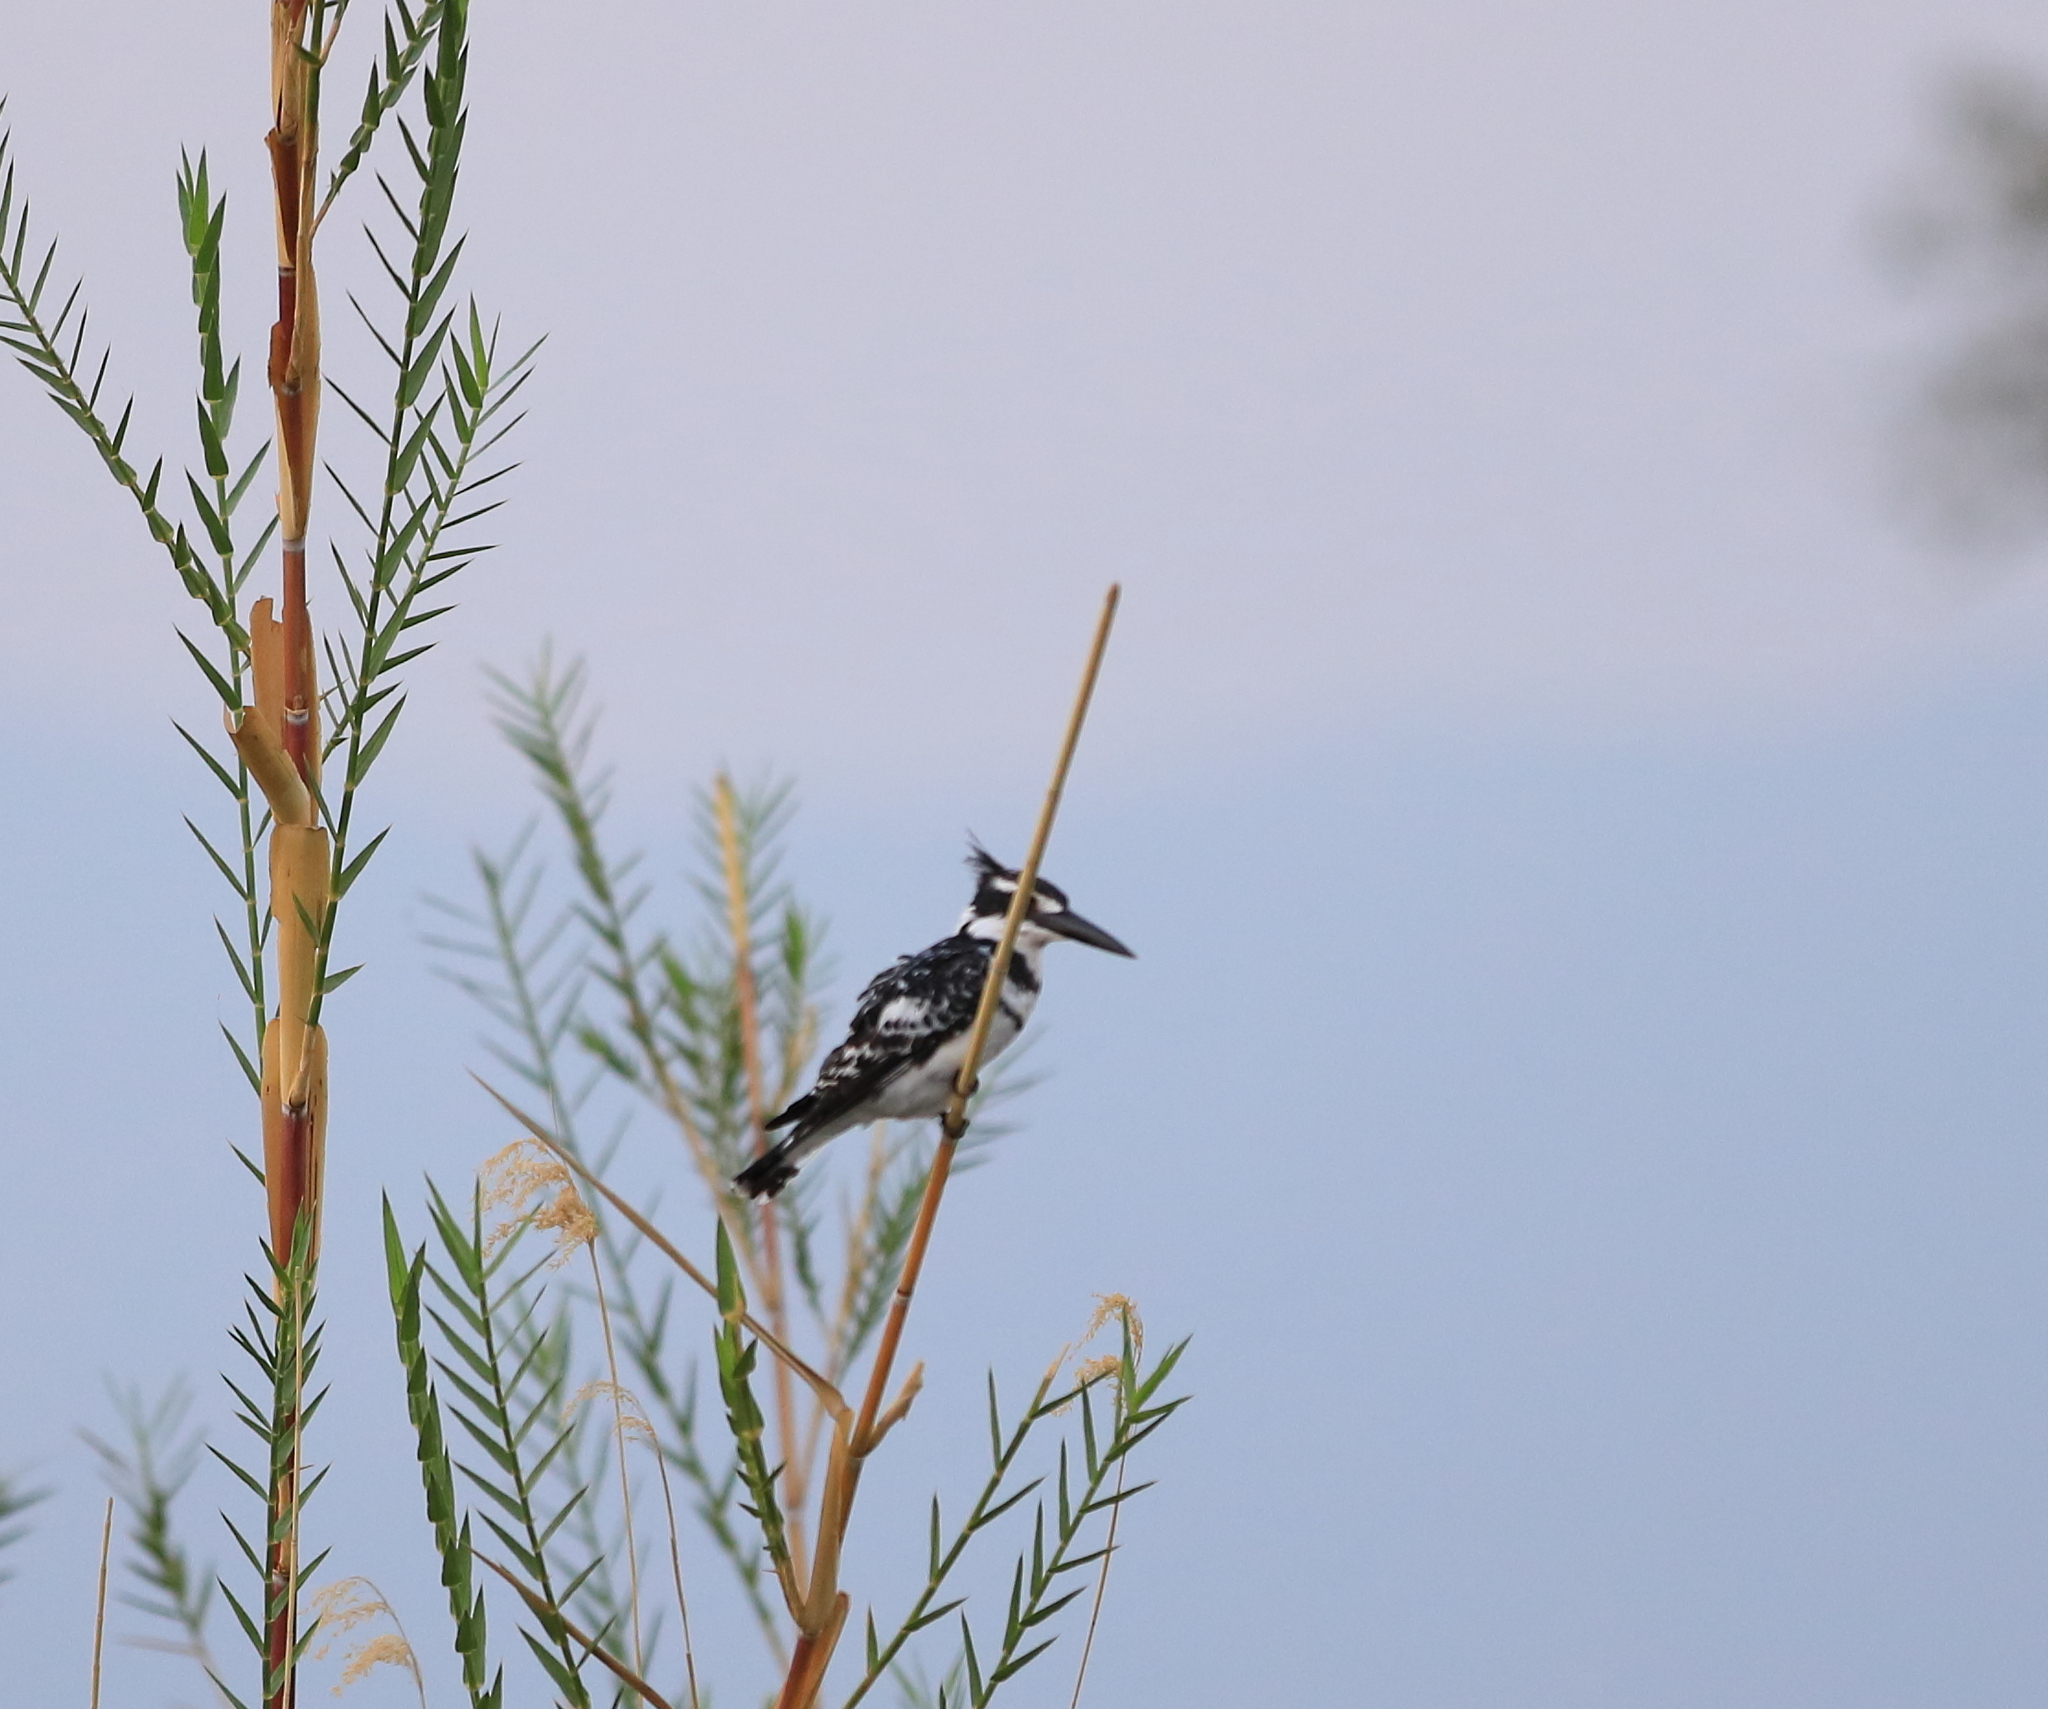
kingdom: Animalia
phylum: Chordata
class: Aves
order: Coraciiformes
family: Alcedinidae
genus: Ceryle
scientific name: Ceryle rudis
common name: Pied kingfisher
